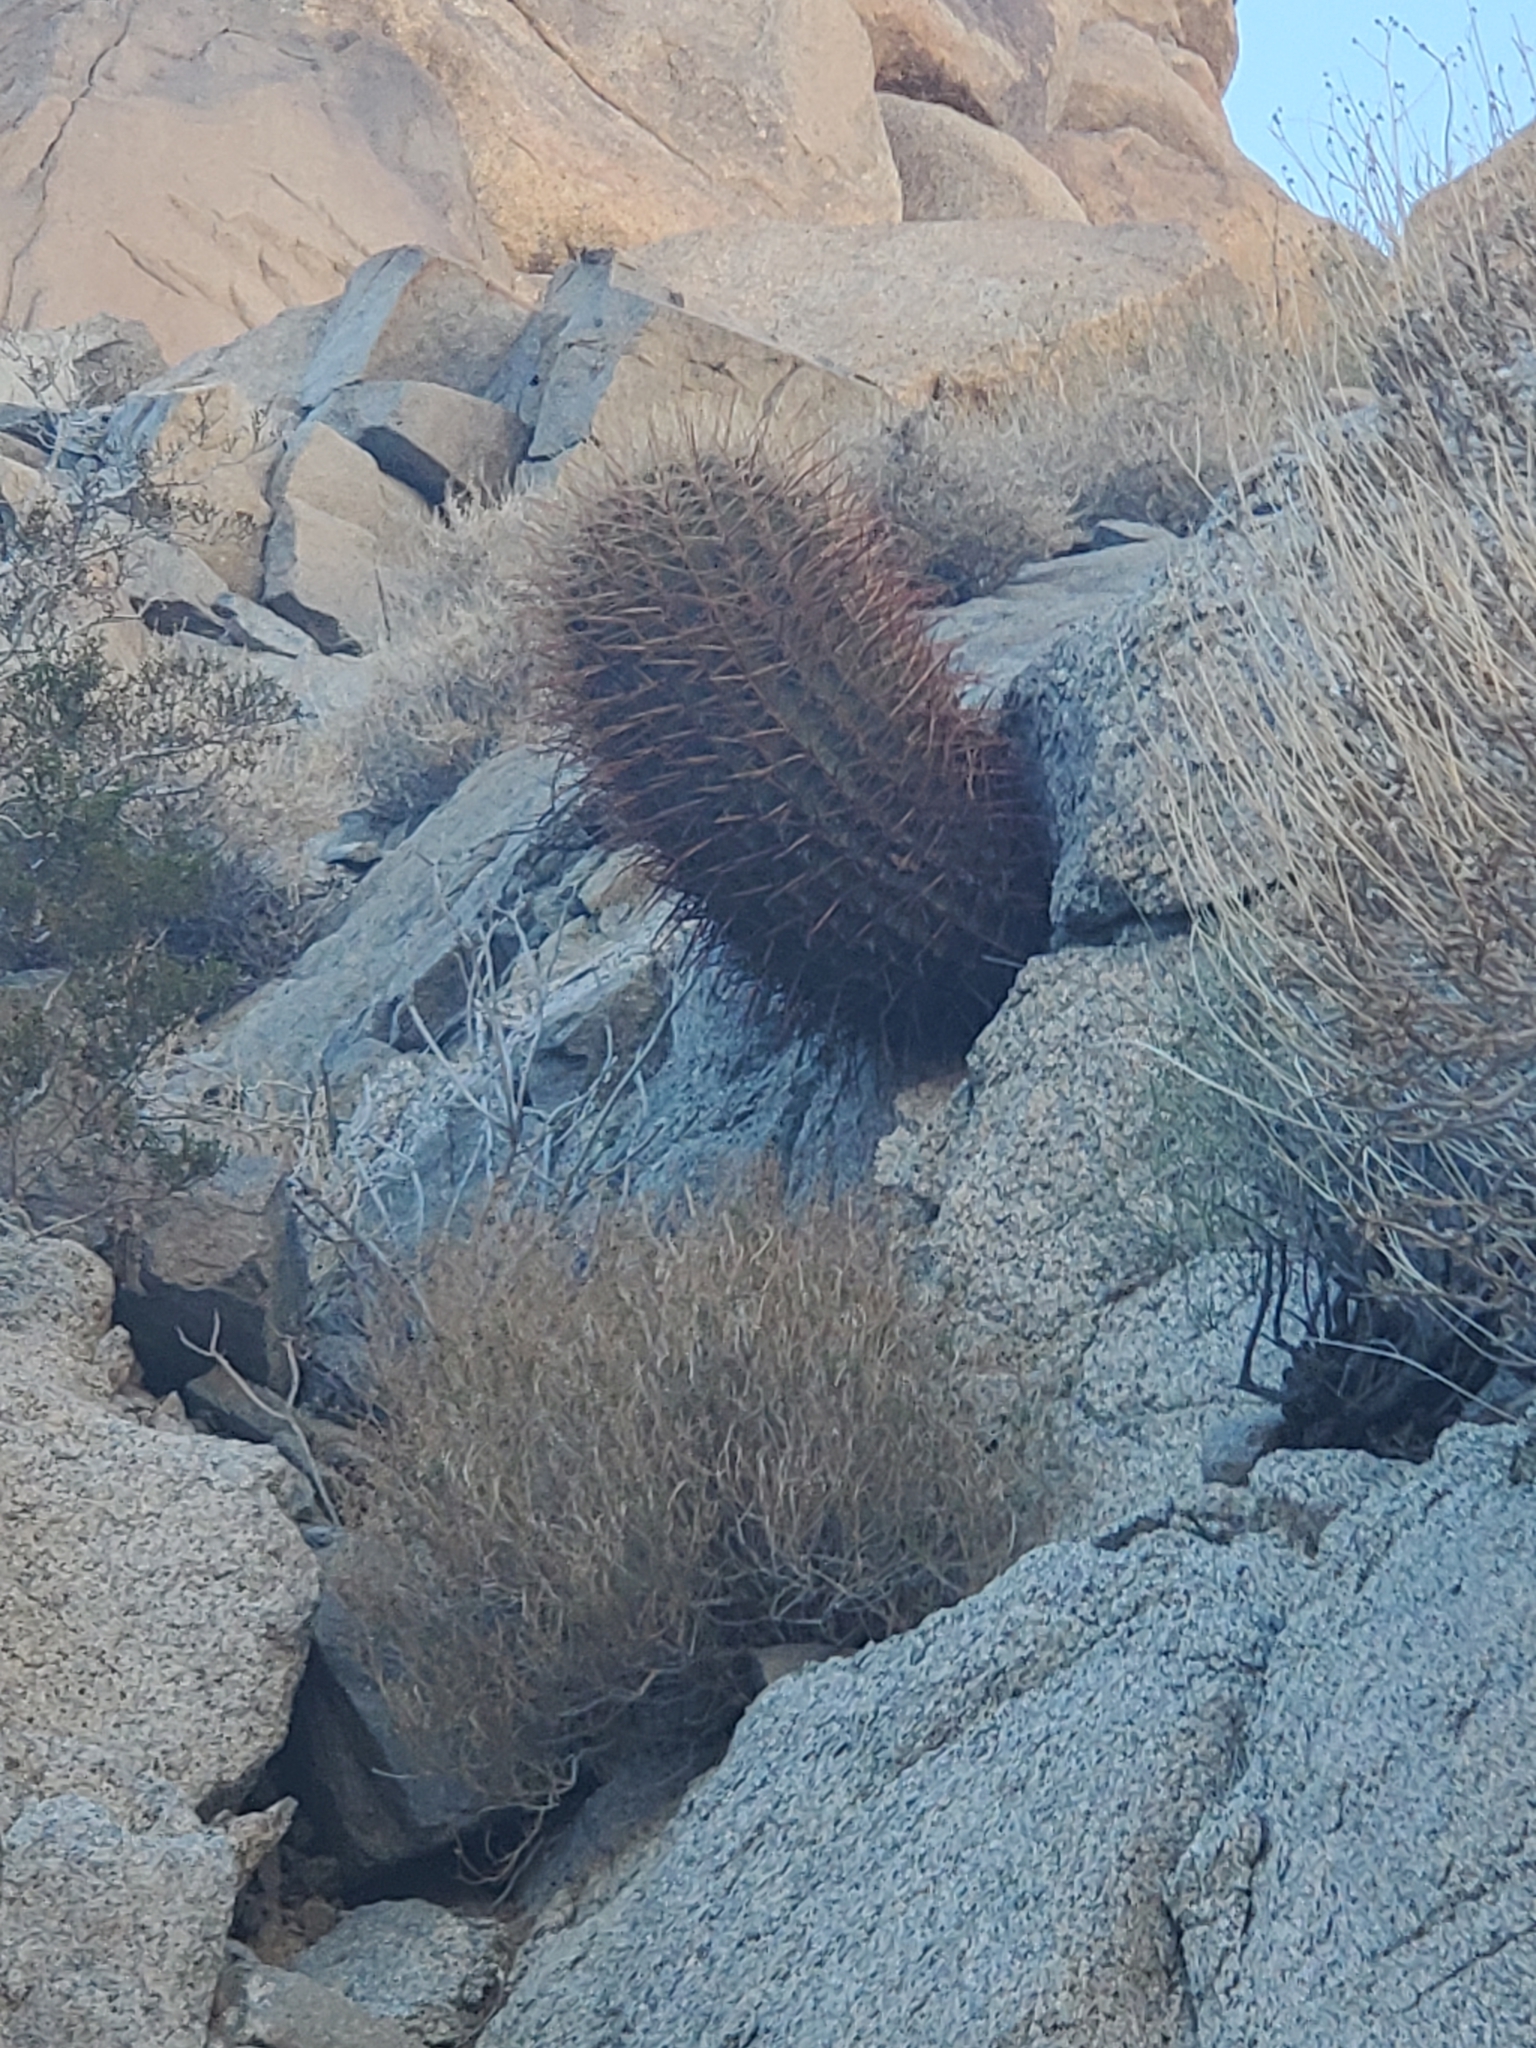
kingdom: Plantae
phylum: Tracheophyta
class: Magnoliopsida
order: Caryophyllales
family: Cactaceae
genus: Ferocactus
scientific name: Ferocactus cylindraceus
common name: California barrel cactus
